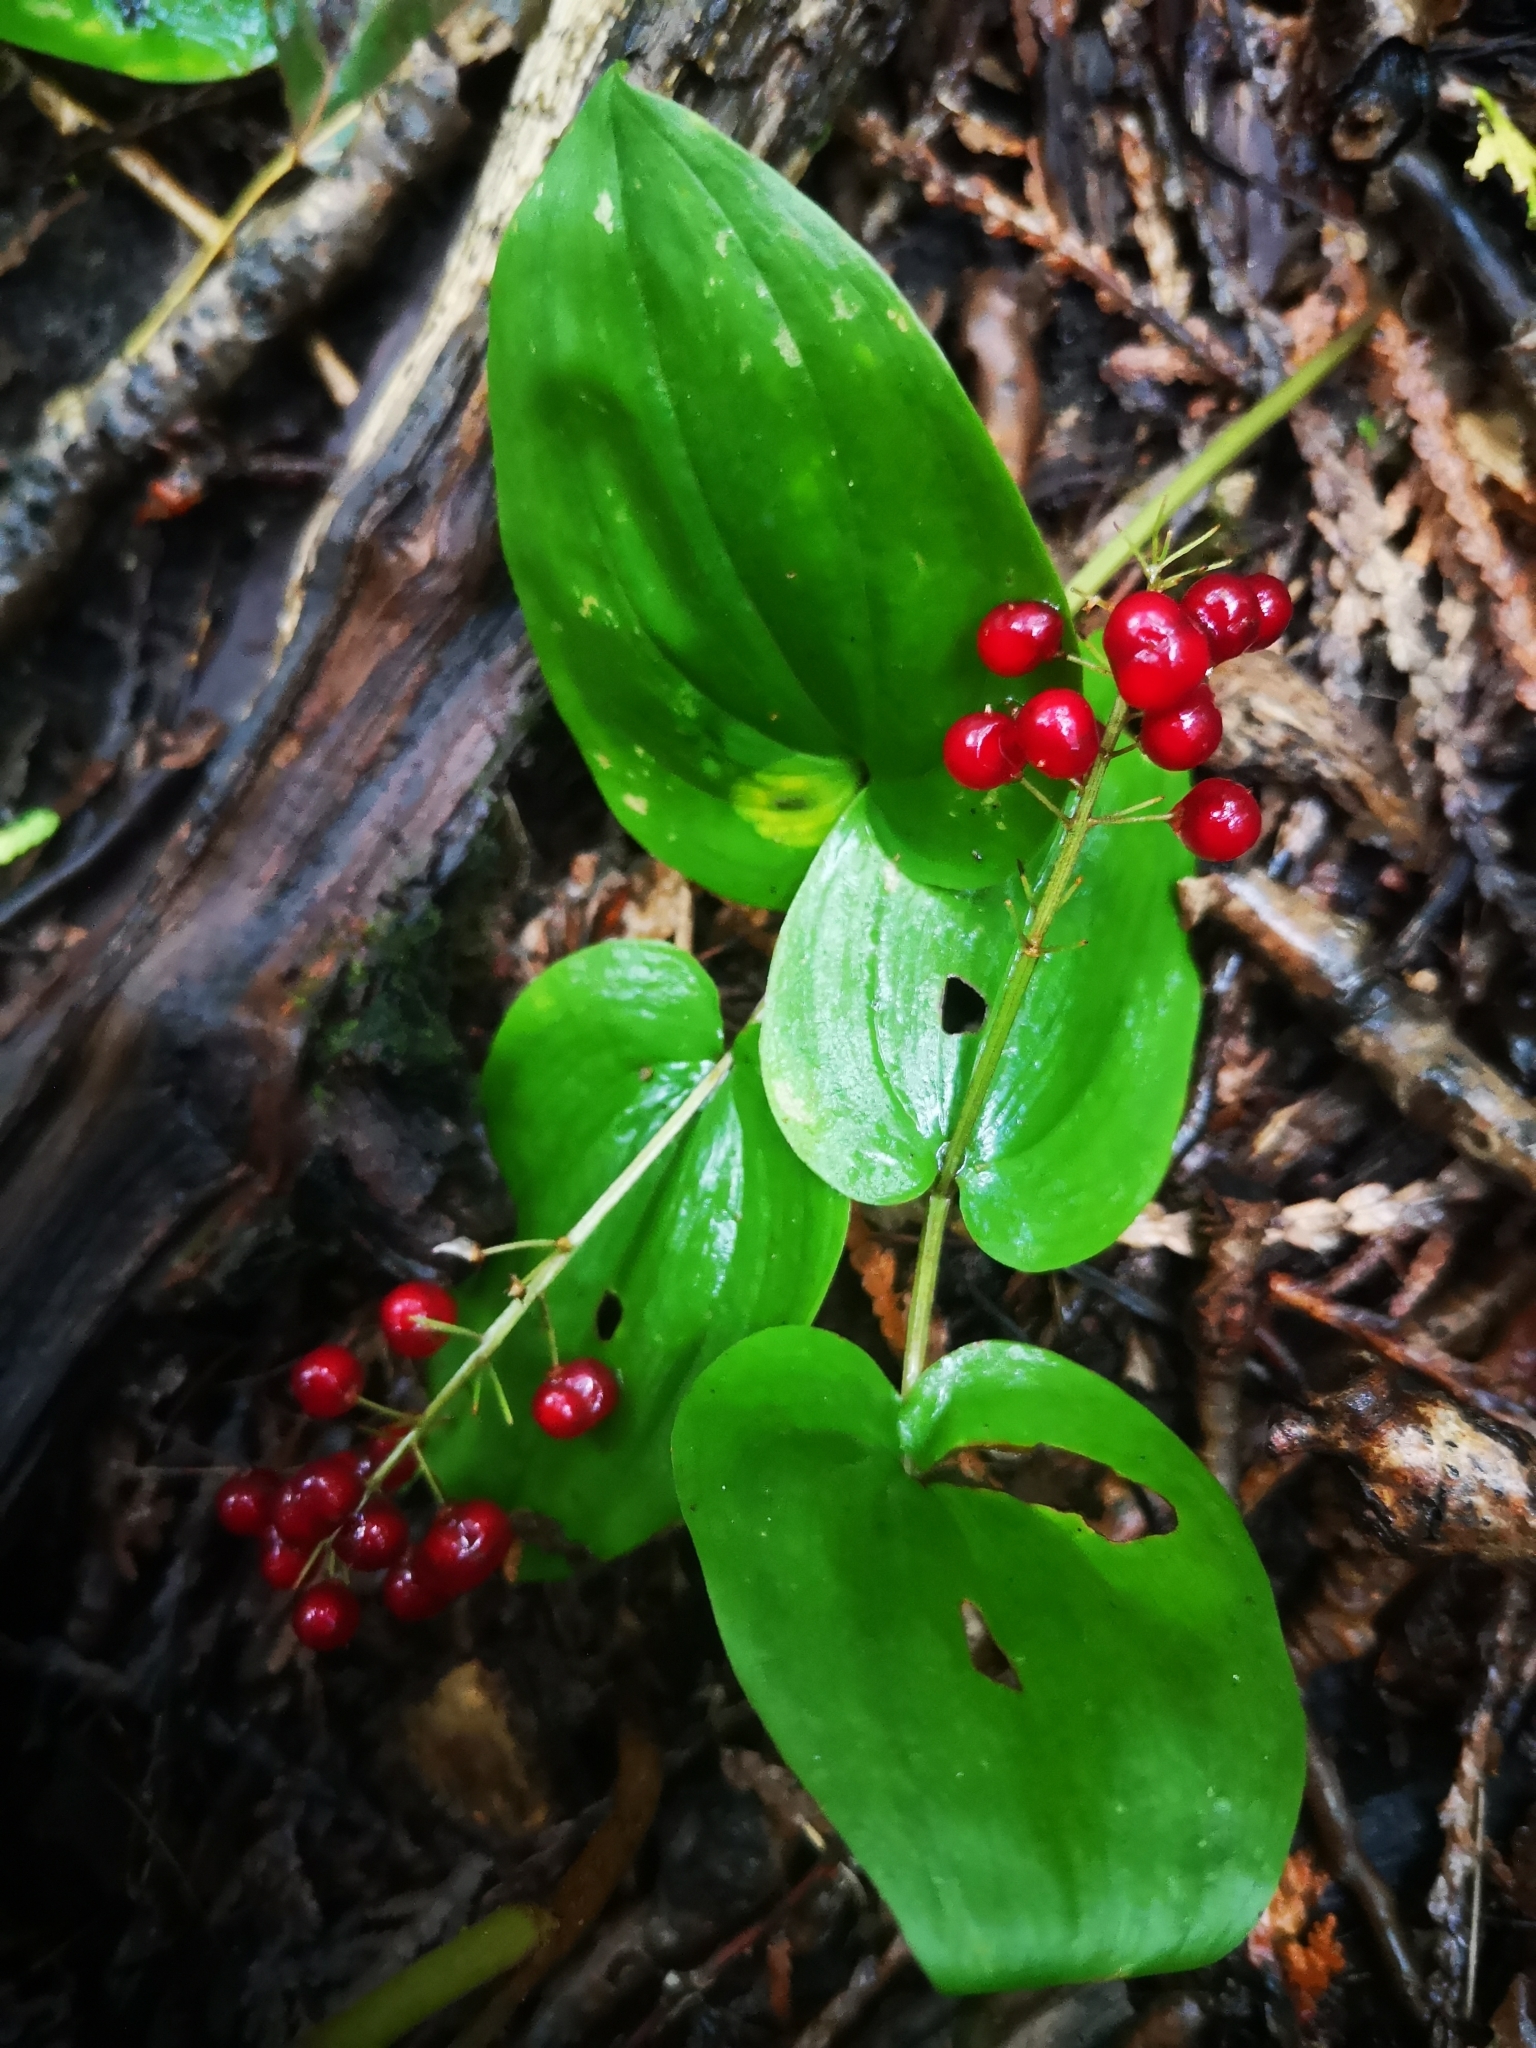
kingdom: Plantae
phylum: Tracheophyta
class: Liliopsida
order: Asparagales
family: Asparagaceae
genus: Maianthemum
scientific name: Maianthemum canadense
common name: False lily-of-the-valley
